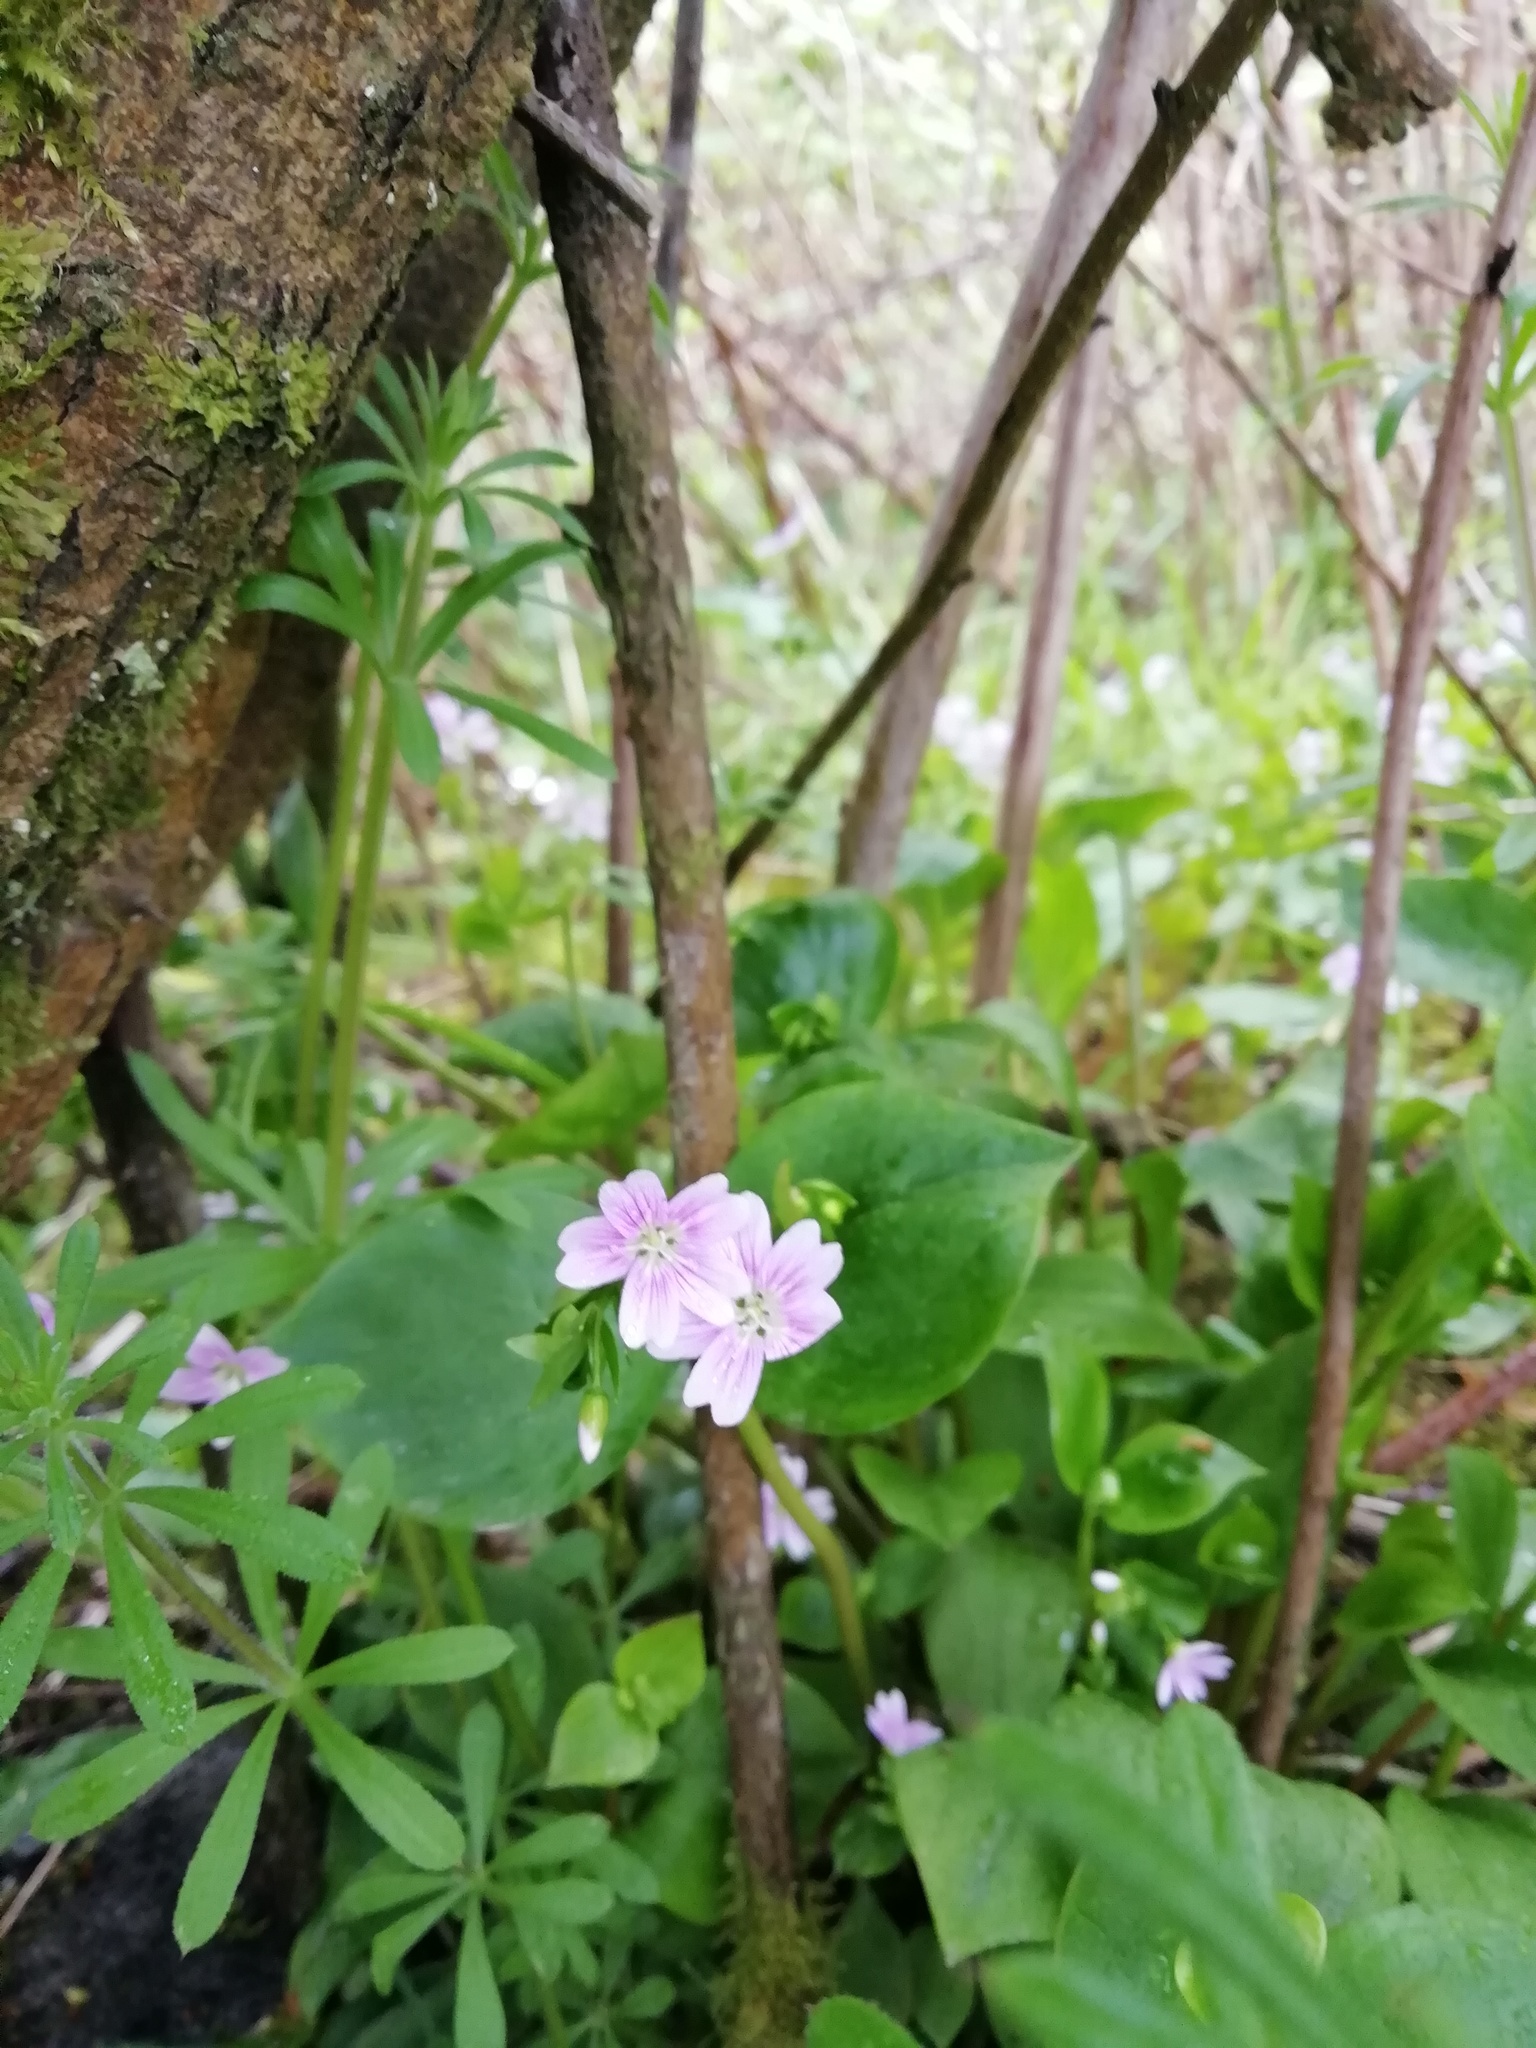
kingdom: Plantae
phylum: Tracheophyta
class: Magnoliopsida
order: Caryophyllales
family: Montiaceae
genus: Claytonia
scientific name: Claytonia sibirica
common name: Pink purslane
